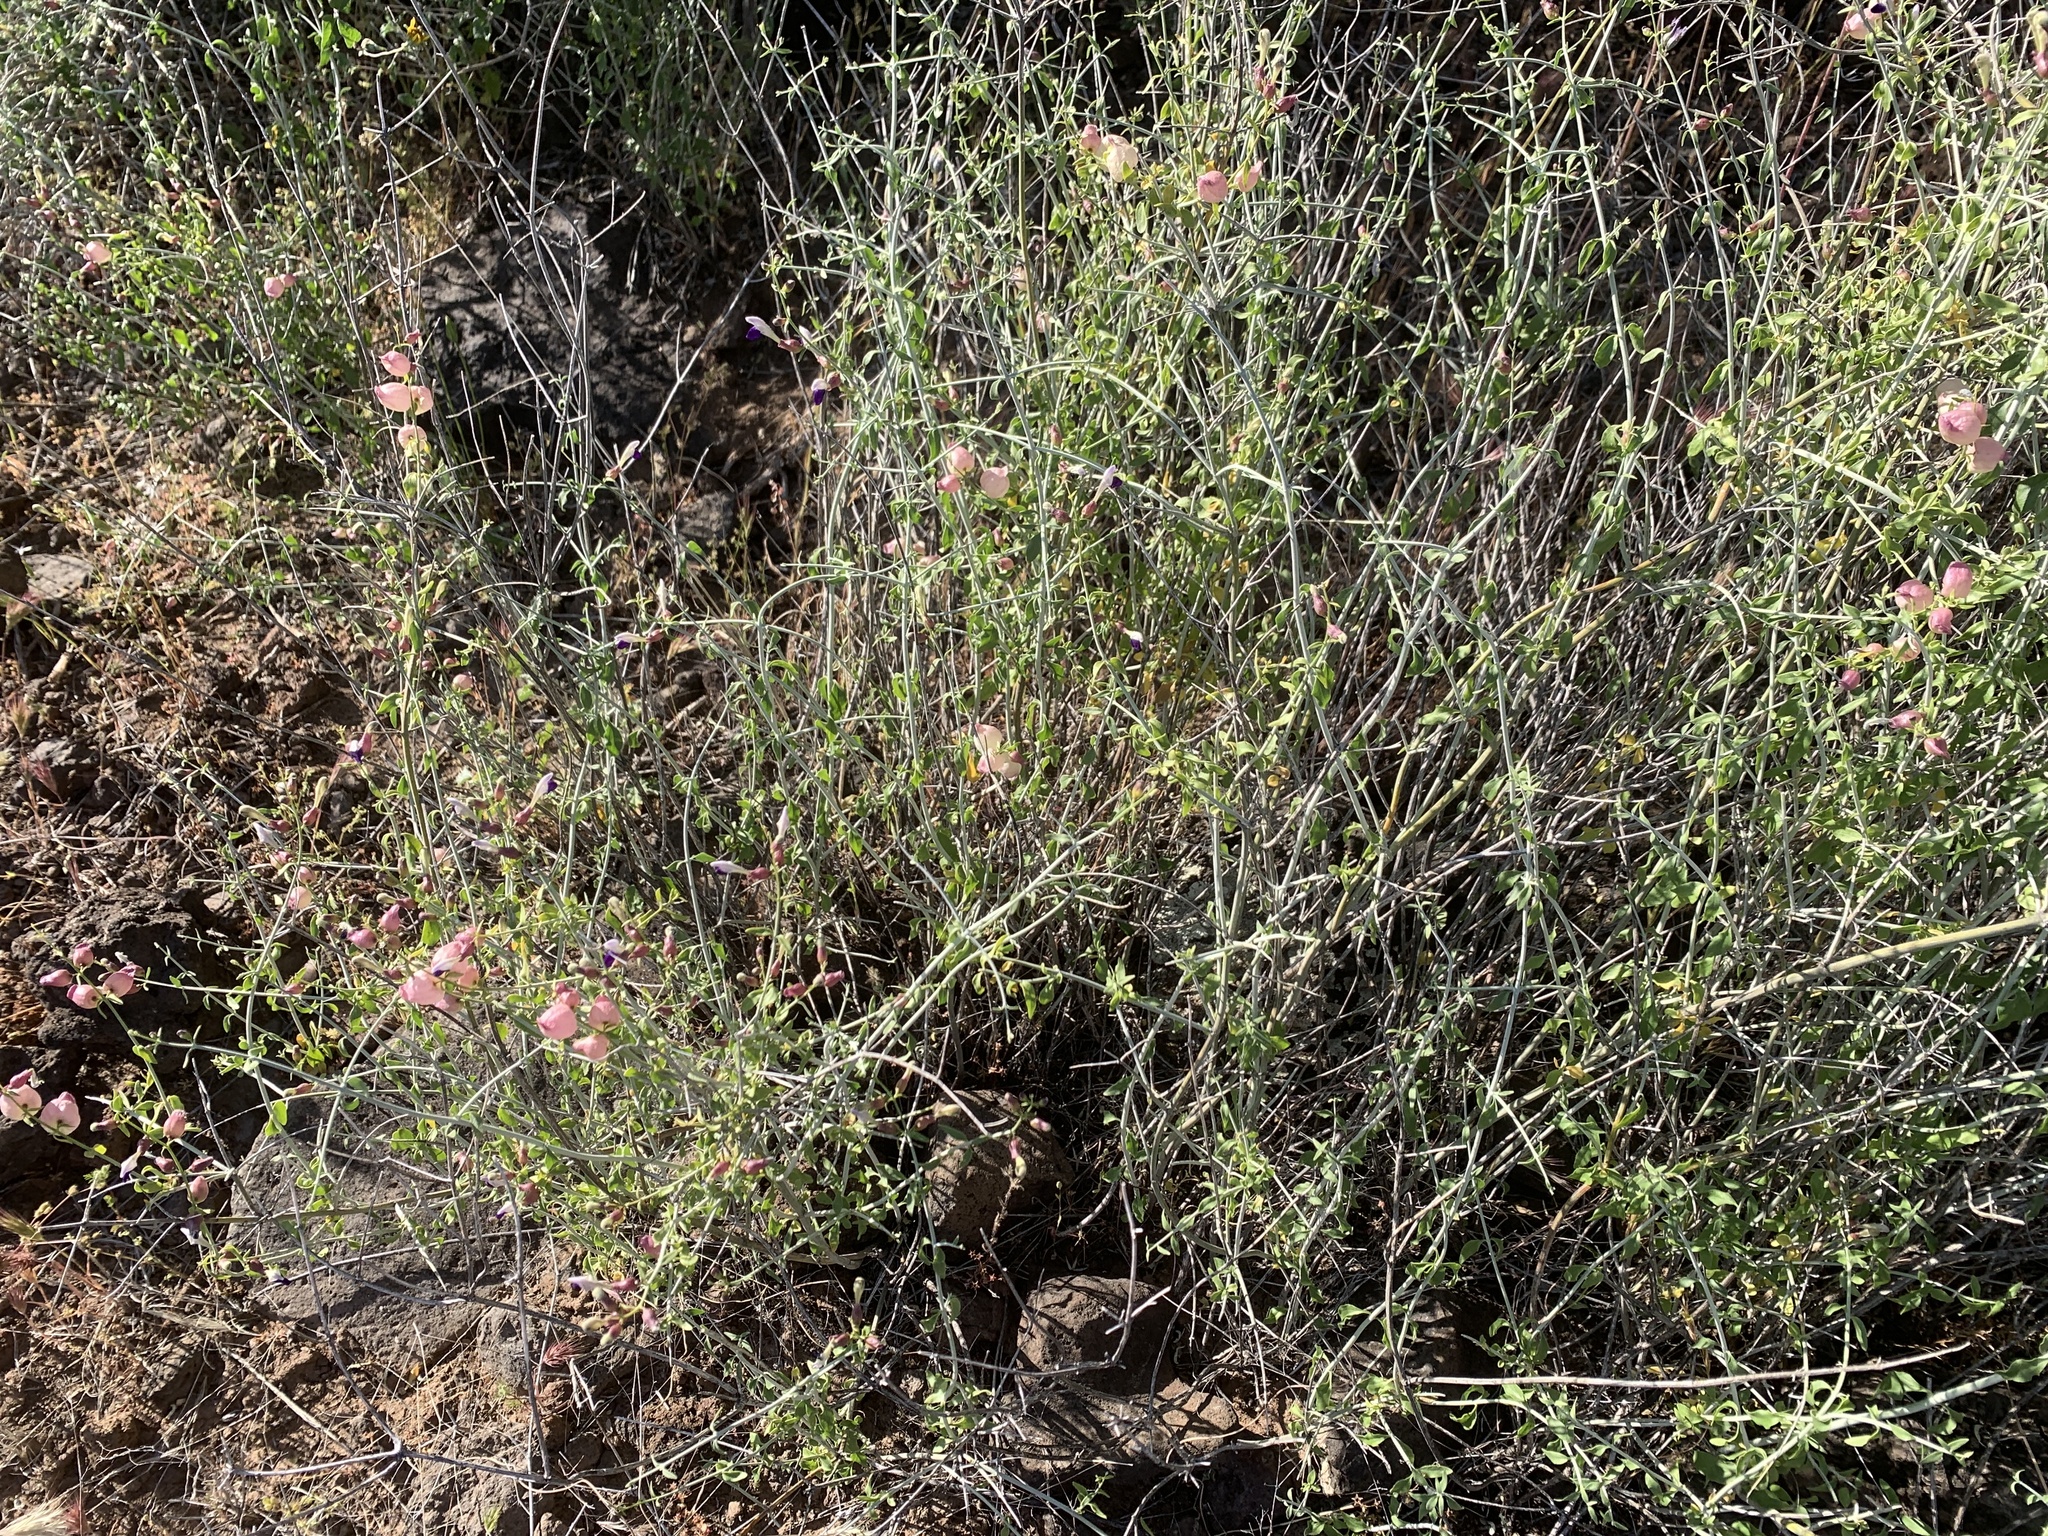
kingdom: Plantae
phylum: Tracheophyta
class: Magnoliopsida
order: Lamiales
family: Lamiaceae
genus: Scutellaria
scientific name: Scutellaria mexicana
